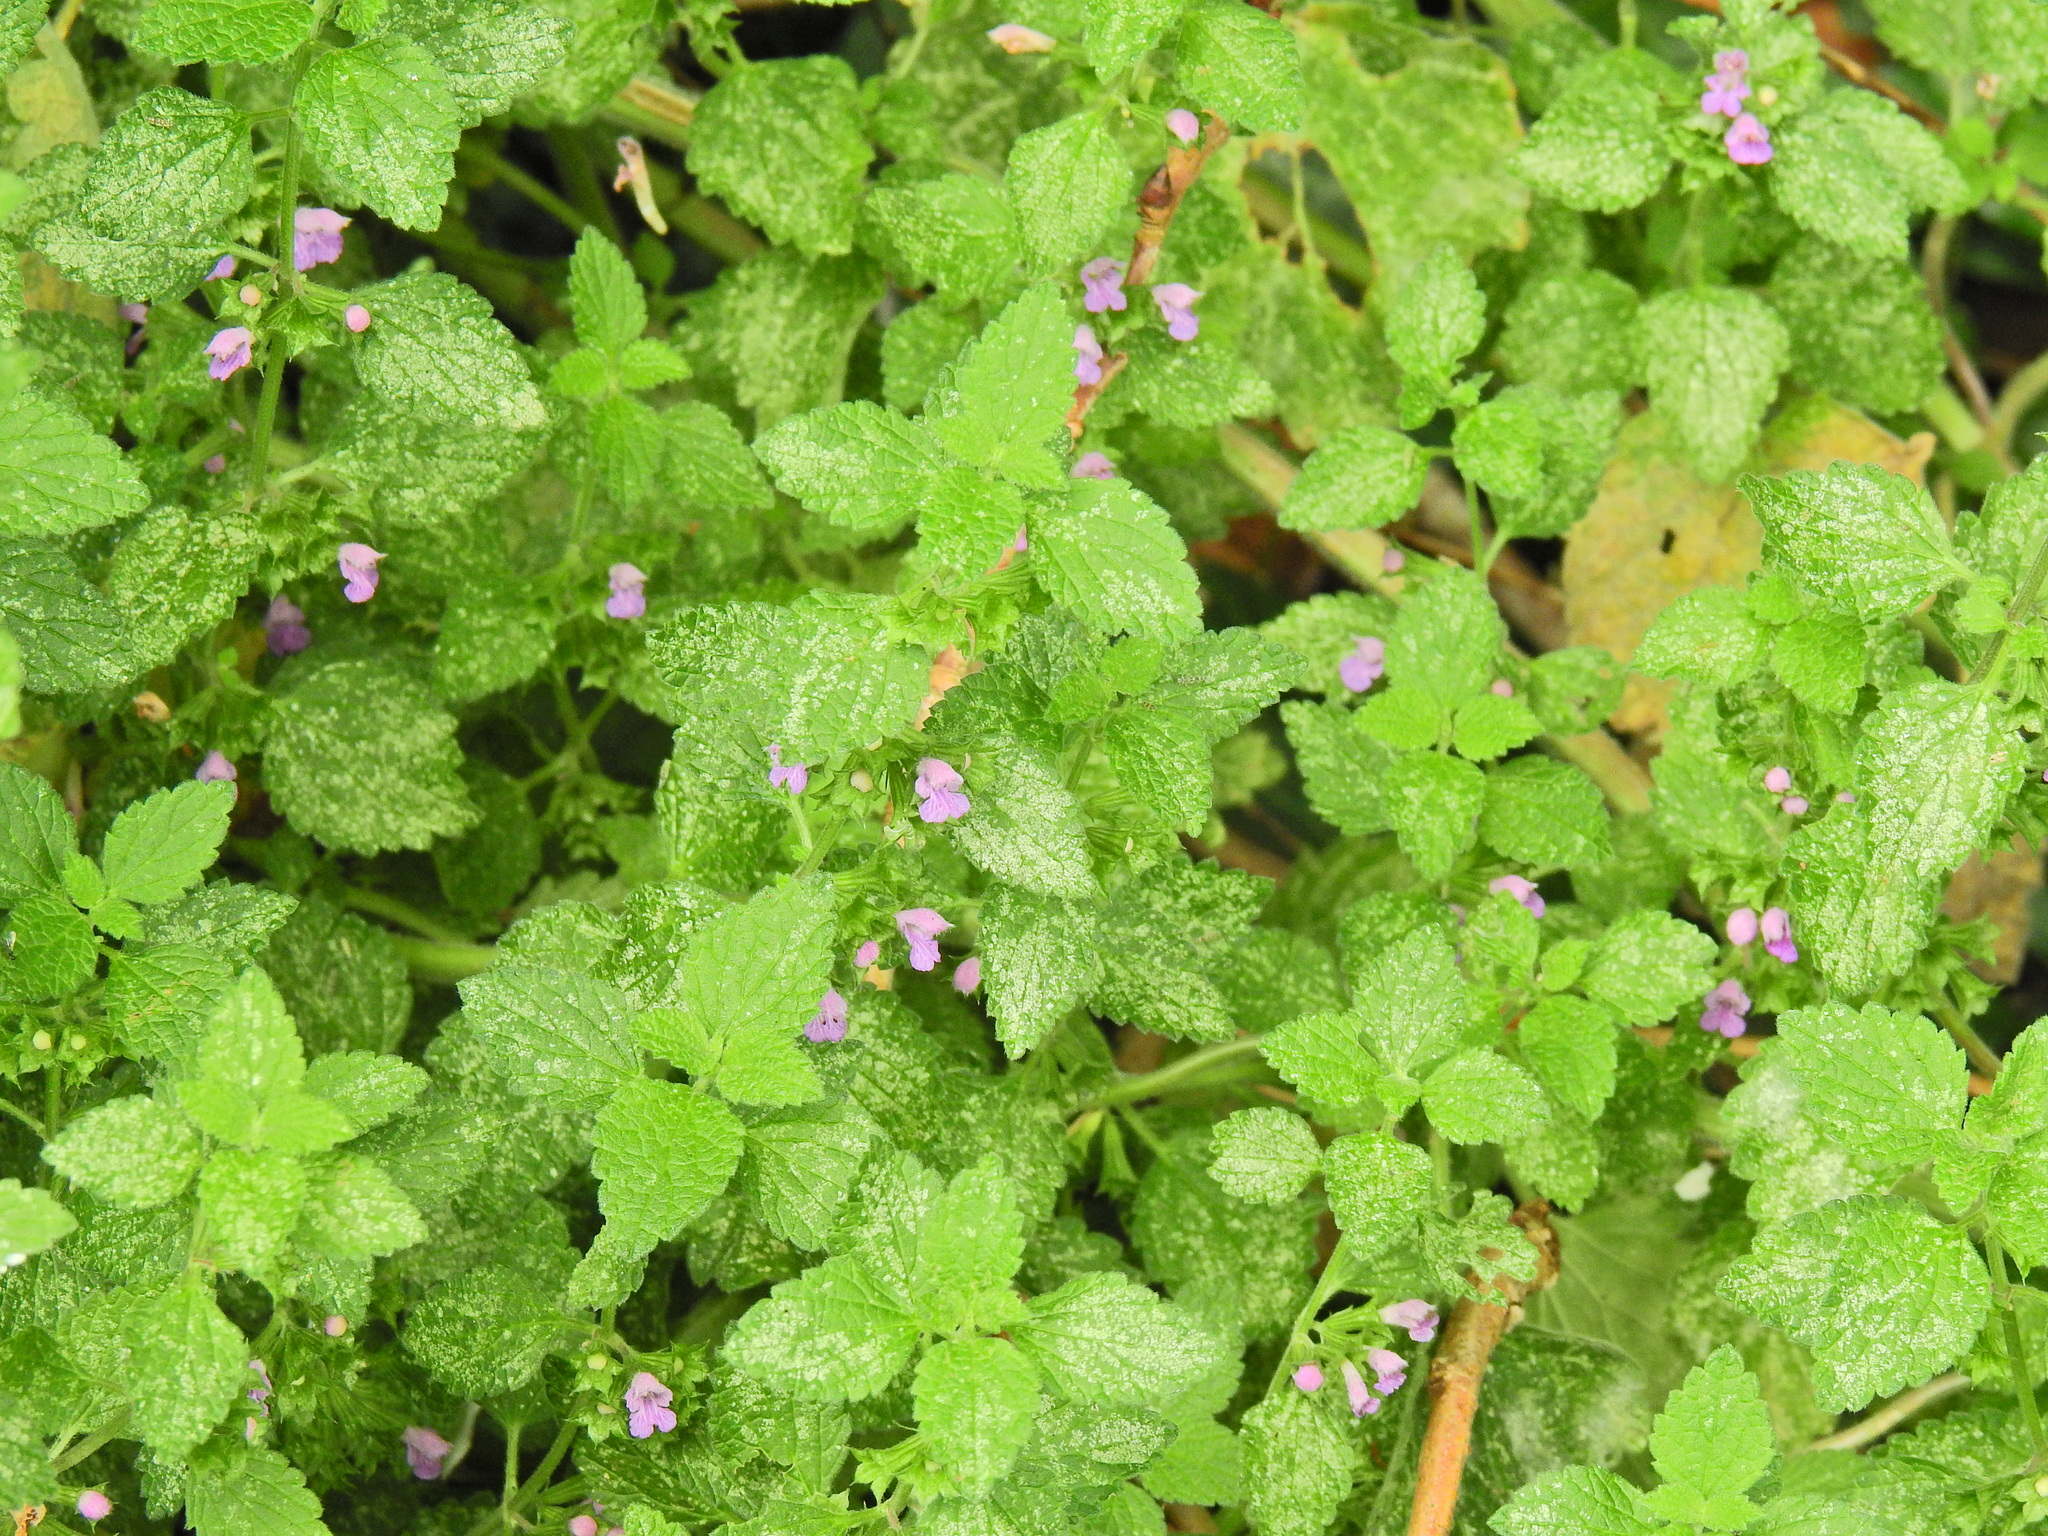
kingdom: Plantae
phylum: Tracheophyta
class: Magnoliopsida
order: Lamiales
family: Lamiaceae
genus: Ballota
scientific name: Ballota nigra
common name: Black horehound
